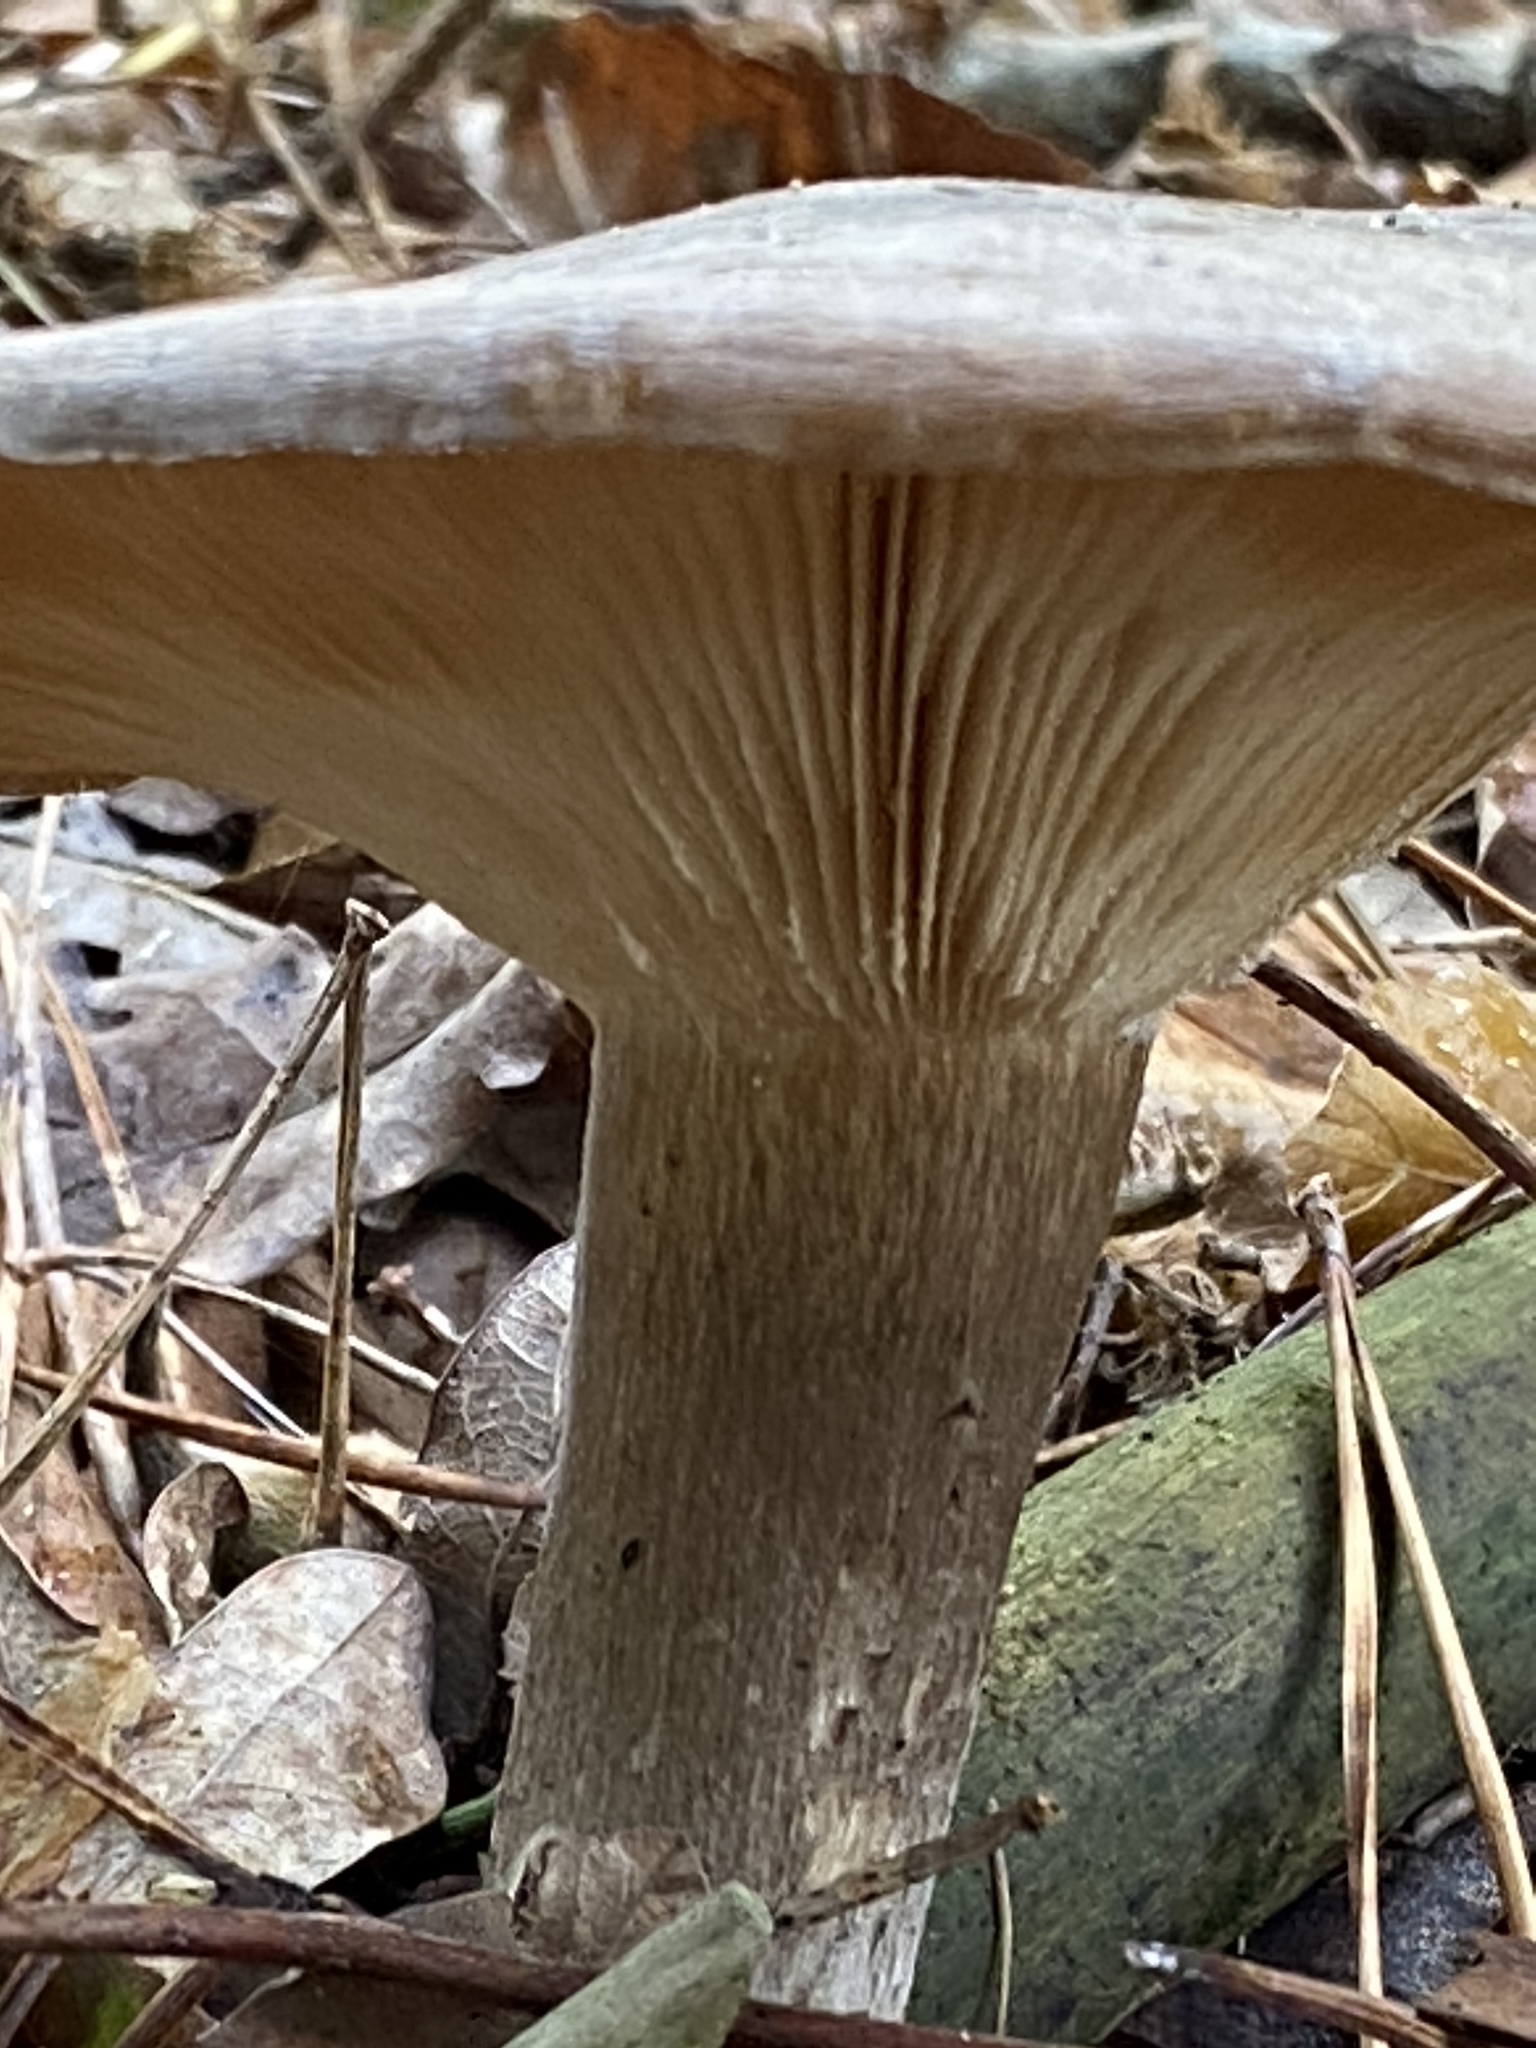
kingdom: Fungi
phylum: Basidiomycota
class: Agaricomycetes
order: Agaricales
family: Tricholomataceae
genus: Clitocybe
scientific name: Clitocybe nebularis
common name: Clouded agaric
